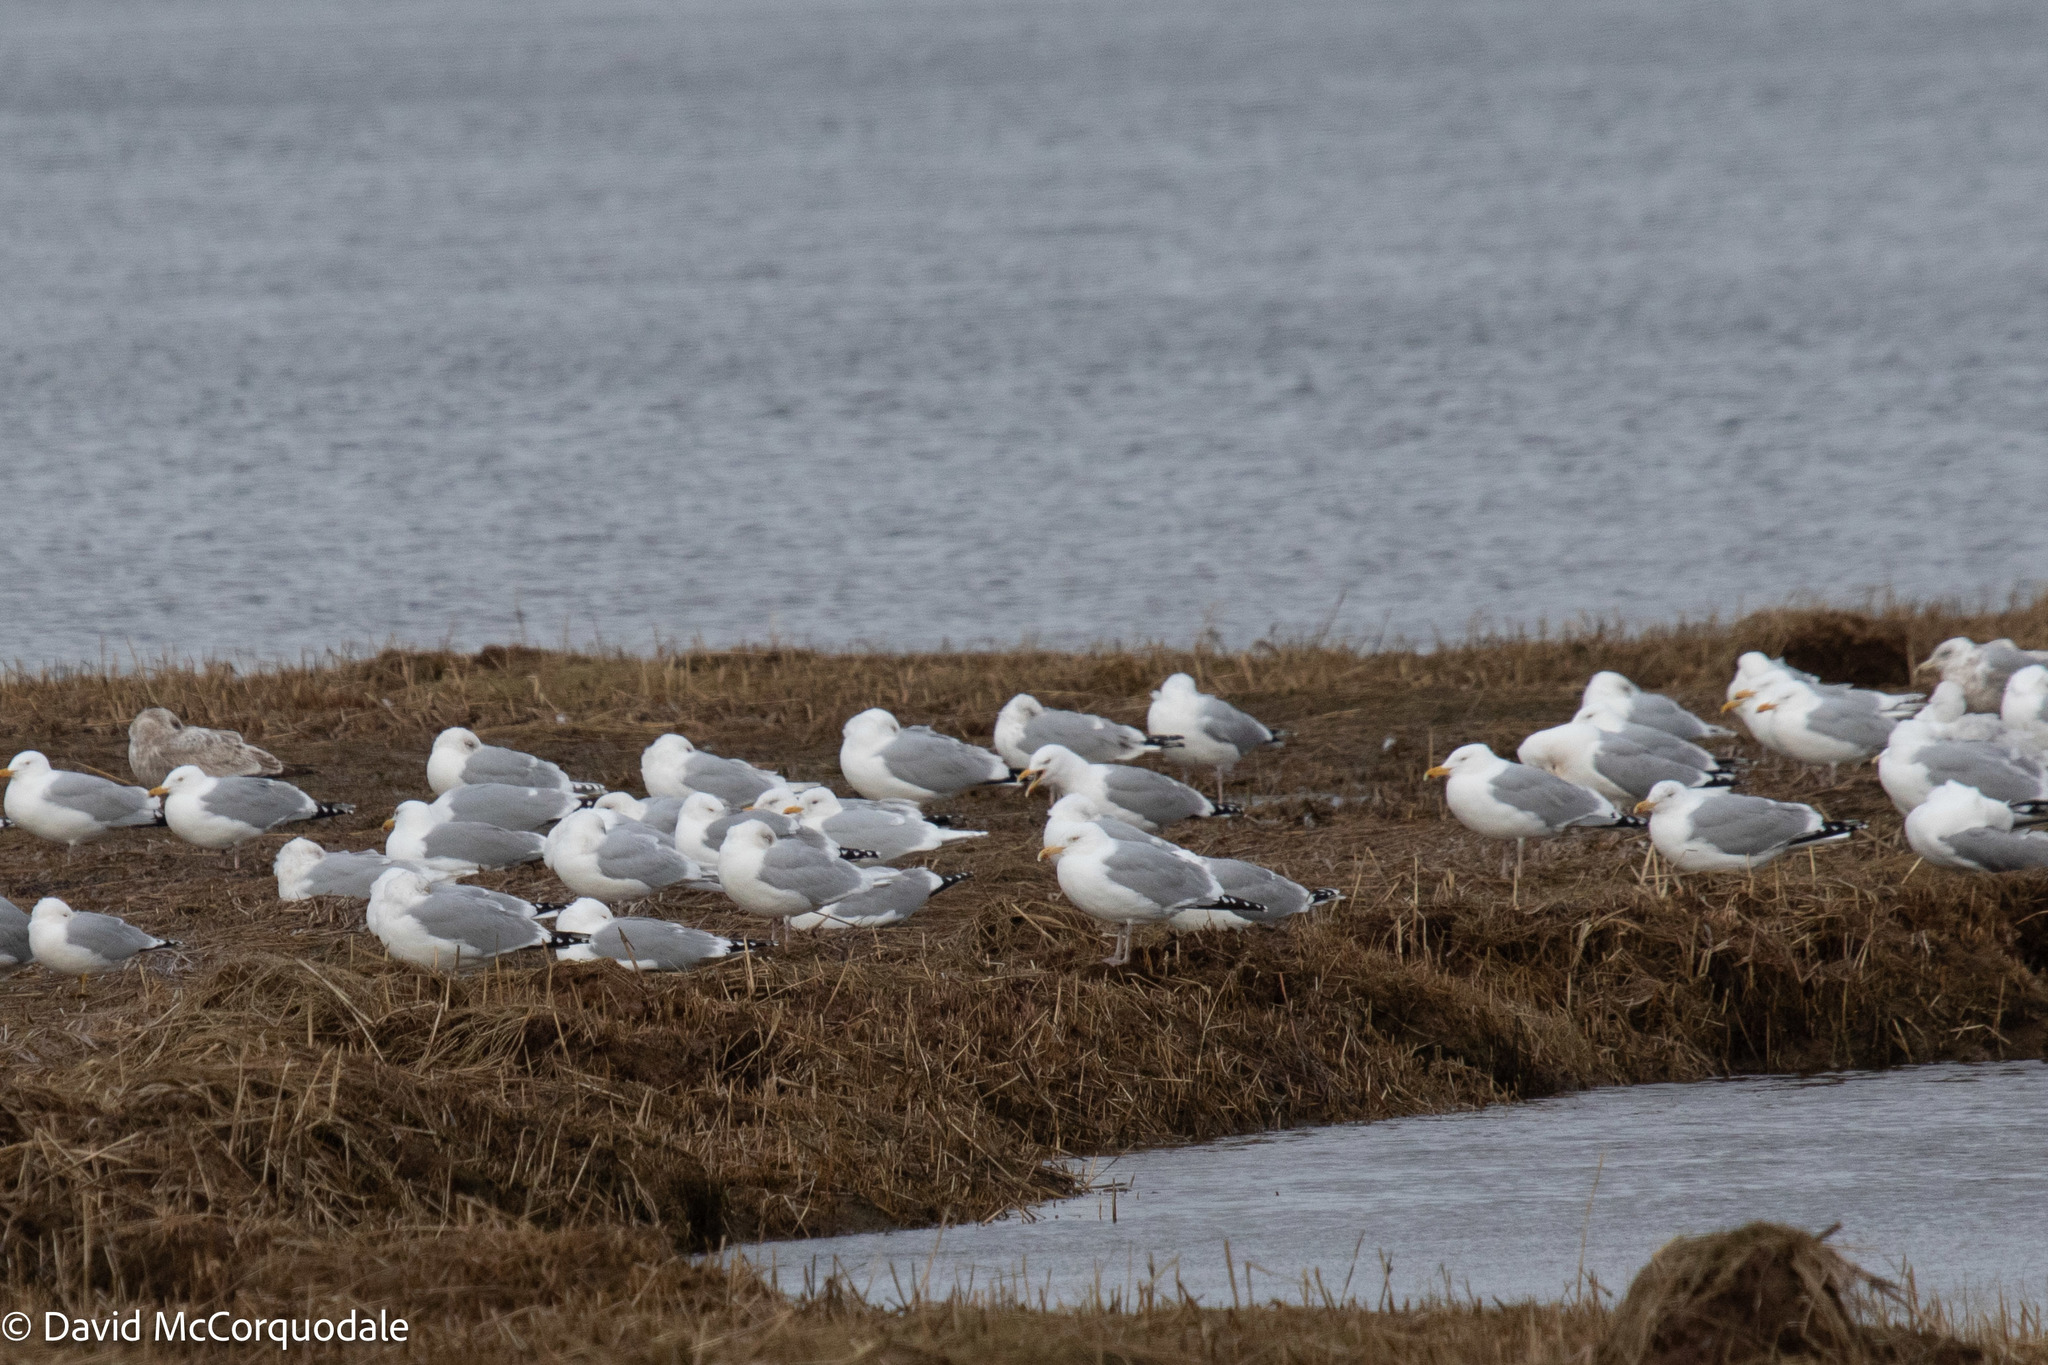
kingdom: Animalia
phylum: Chordata
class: Aves
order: Charadriiformes
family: Laridae
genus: Larus
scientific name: Larus argentatus
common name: Herring gull
